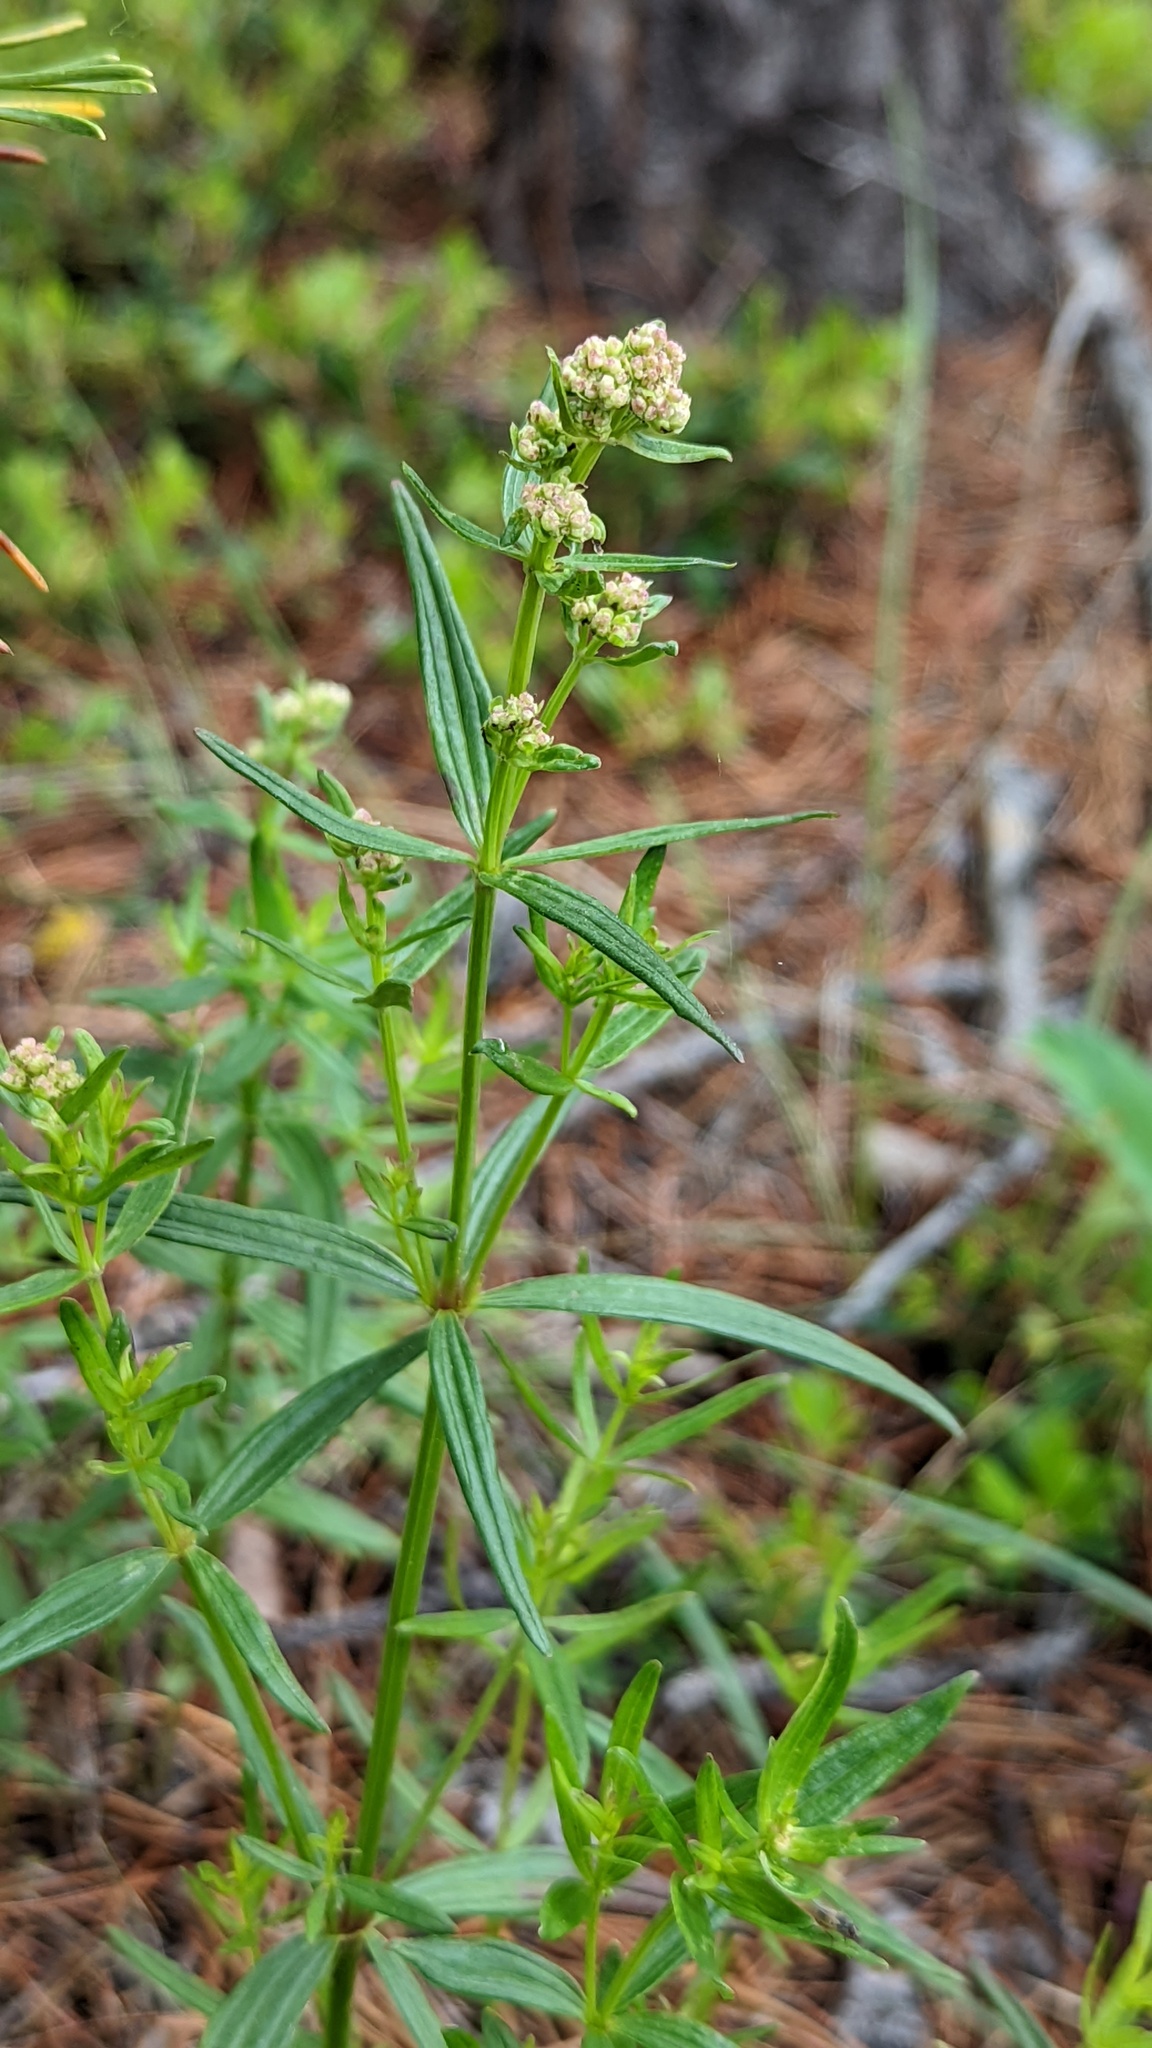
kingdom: Plantae
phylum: Tracheophyta
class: Magnoliopsida
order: Gentianales
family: Rubiaceae
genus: Galium
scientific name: Galium boreale
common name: Northern bedstraw
